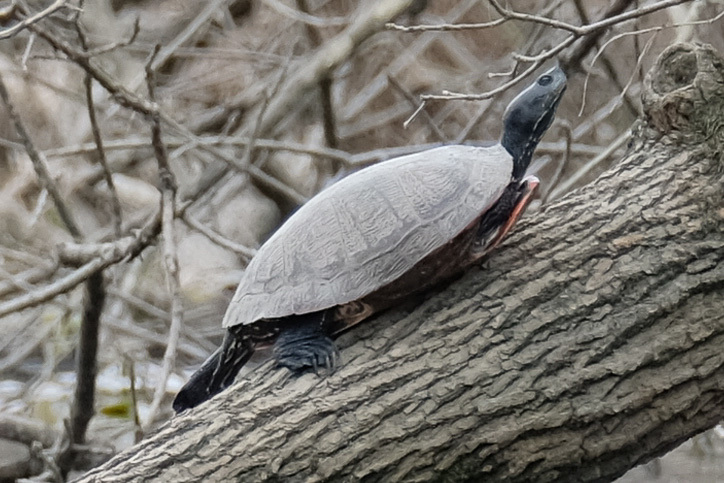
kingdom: Animalia
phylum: Chordata
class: Testudines
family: Emydidae
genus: Pseudemys
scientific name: Pseudemys rubriventris
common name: American red-bellied turtle
